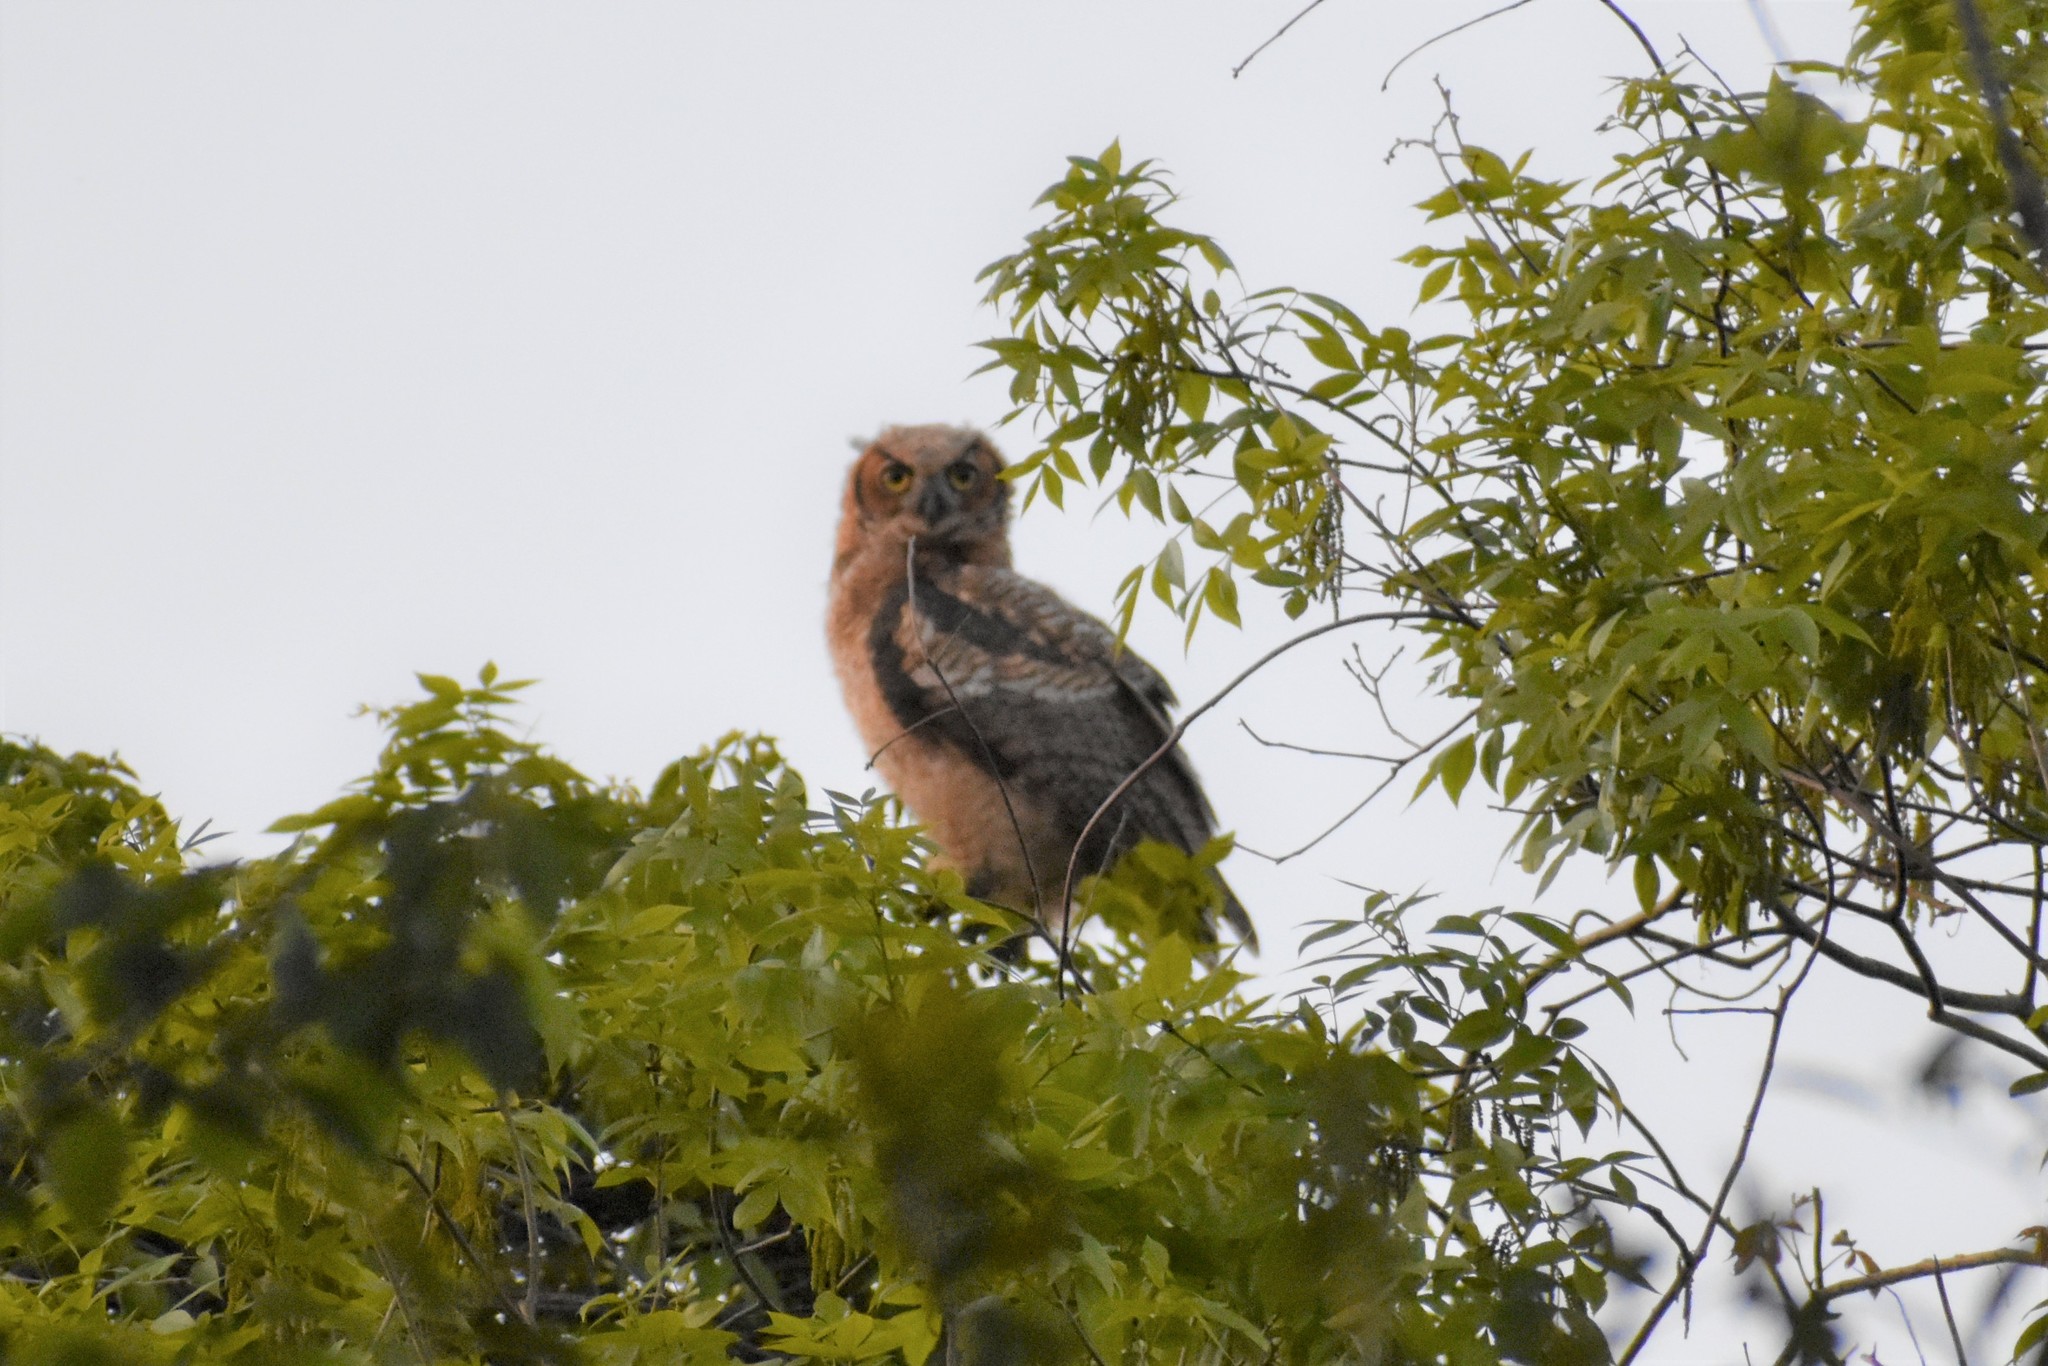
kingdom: Animalia
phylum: Chordata
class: Aves
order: Strigiformes
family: Strigidae
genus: Bubo
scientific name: Bubo virginianus
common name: Great horned owl
